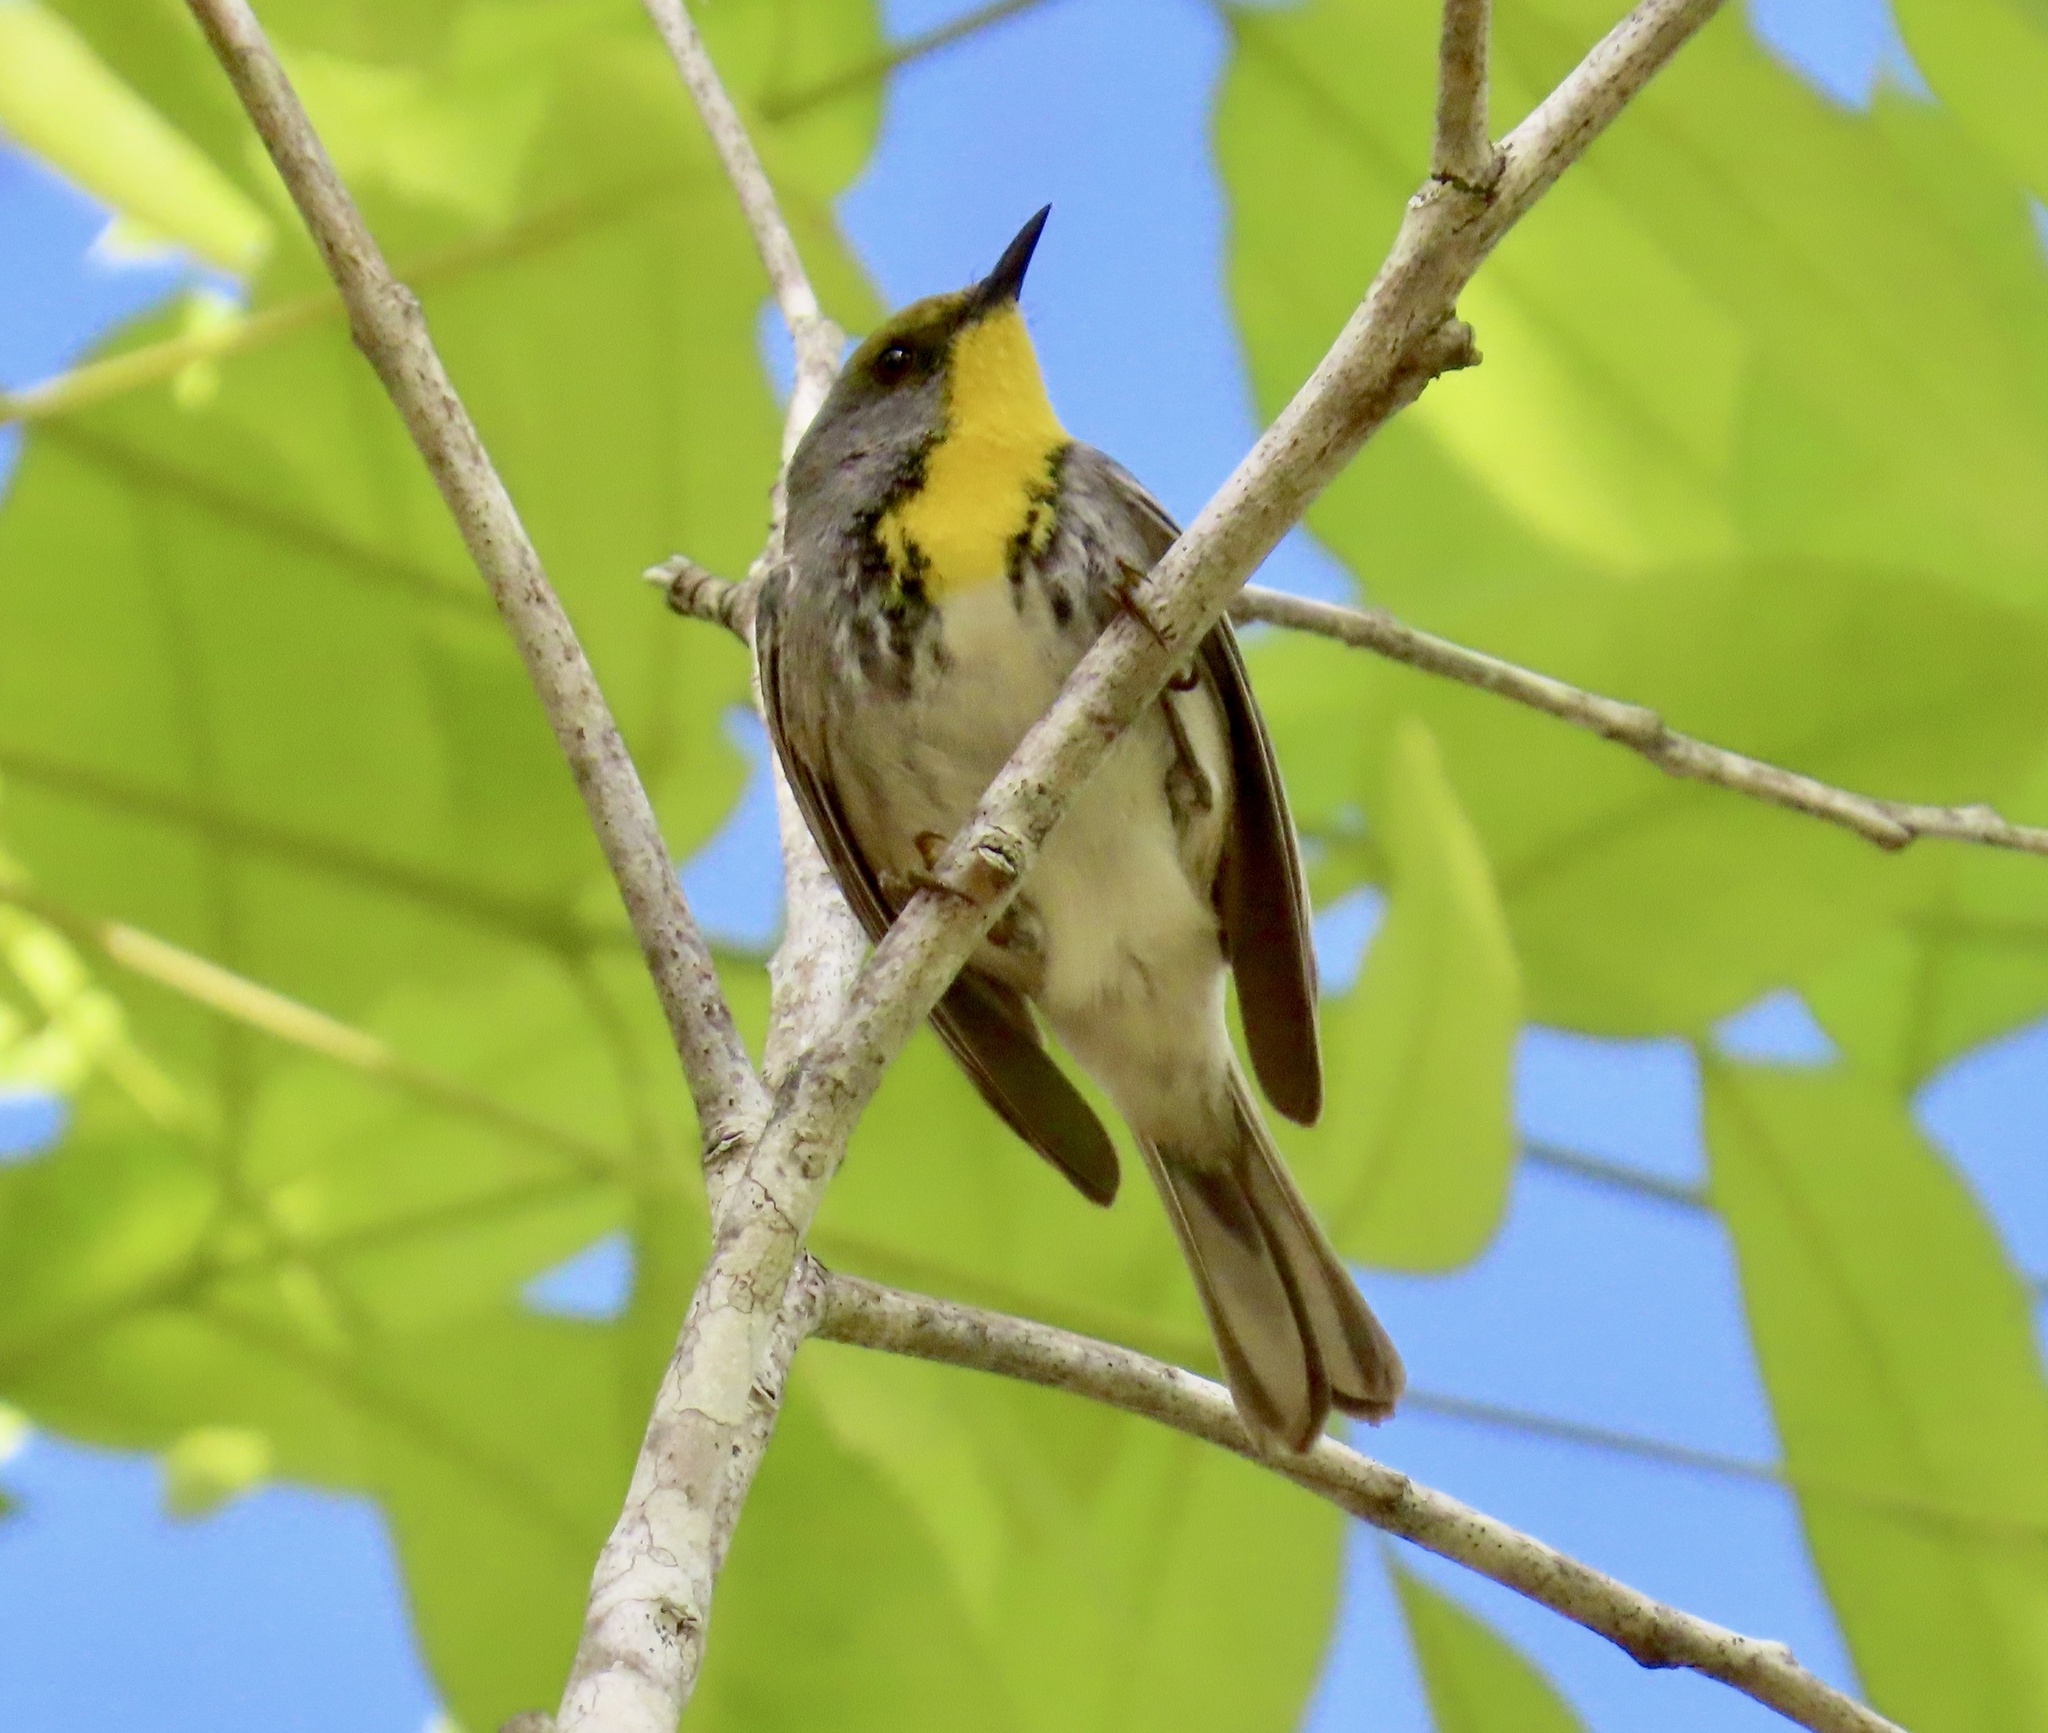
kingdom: Animalia
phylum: Chordata
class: Aves
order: Passeriformes
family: Parulidae
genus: Setophaga
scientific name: Setophaga dominica
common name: Yellow-throated warbler
